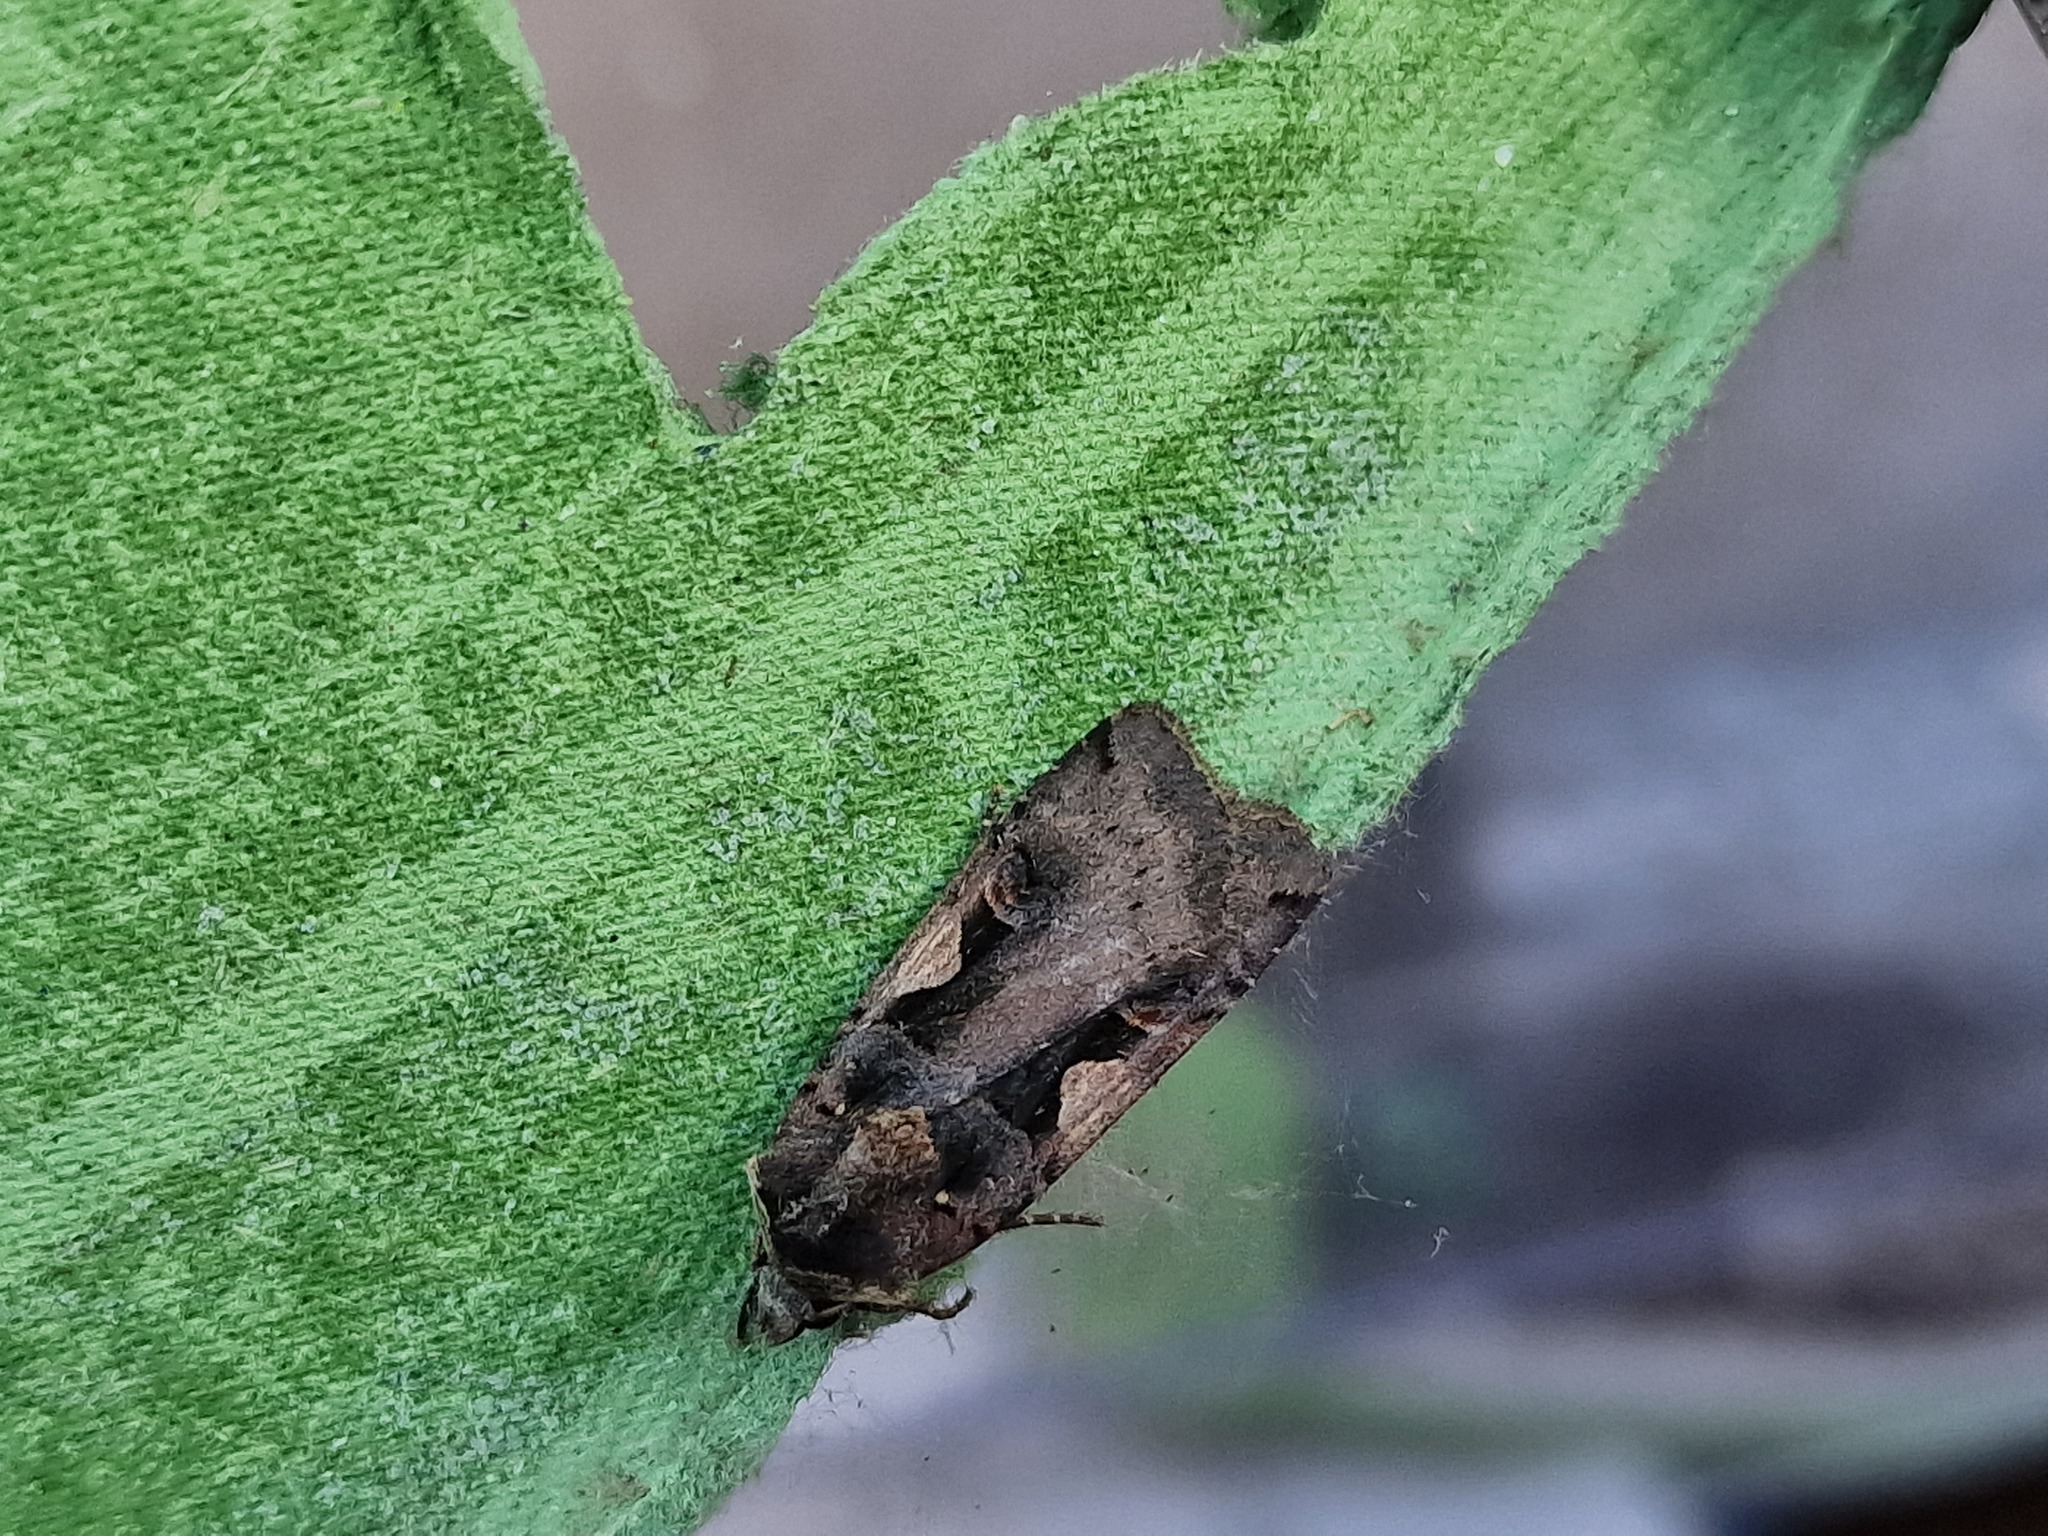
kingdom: Animalia
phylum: Arthropoda
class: Insecta
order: Lepidoptera
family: Noctuidae
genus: Xestia
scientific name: Xestia c-nigrum
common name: Setaceous hebrew character
